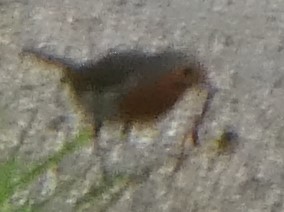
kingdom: Animalia
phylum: Chordata
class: Aves
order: Passeriformes
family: Muscicapidae
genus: Erithacus
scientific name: Erithacus rubecula
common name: European robin
